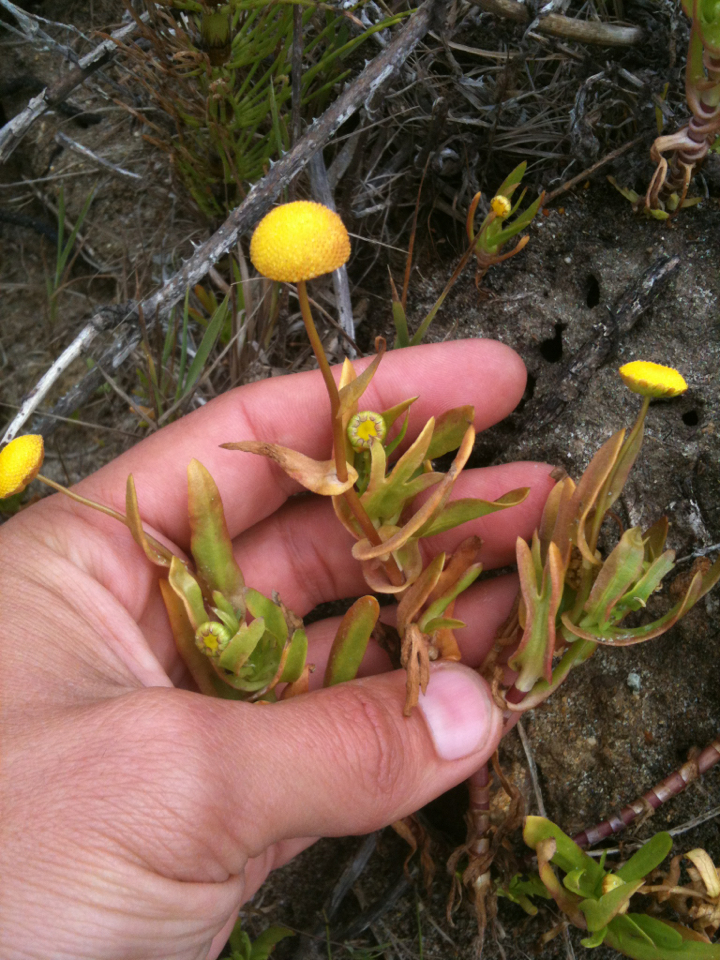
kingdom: Plantae
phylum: Tracheophyta
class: Magnoliopsida
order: Asterales
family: Asteraceae
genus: Cotula
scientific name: Cotula coronopifolia
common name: Buttonweed
